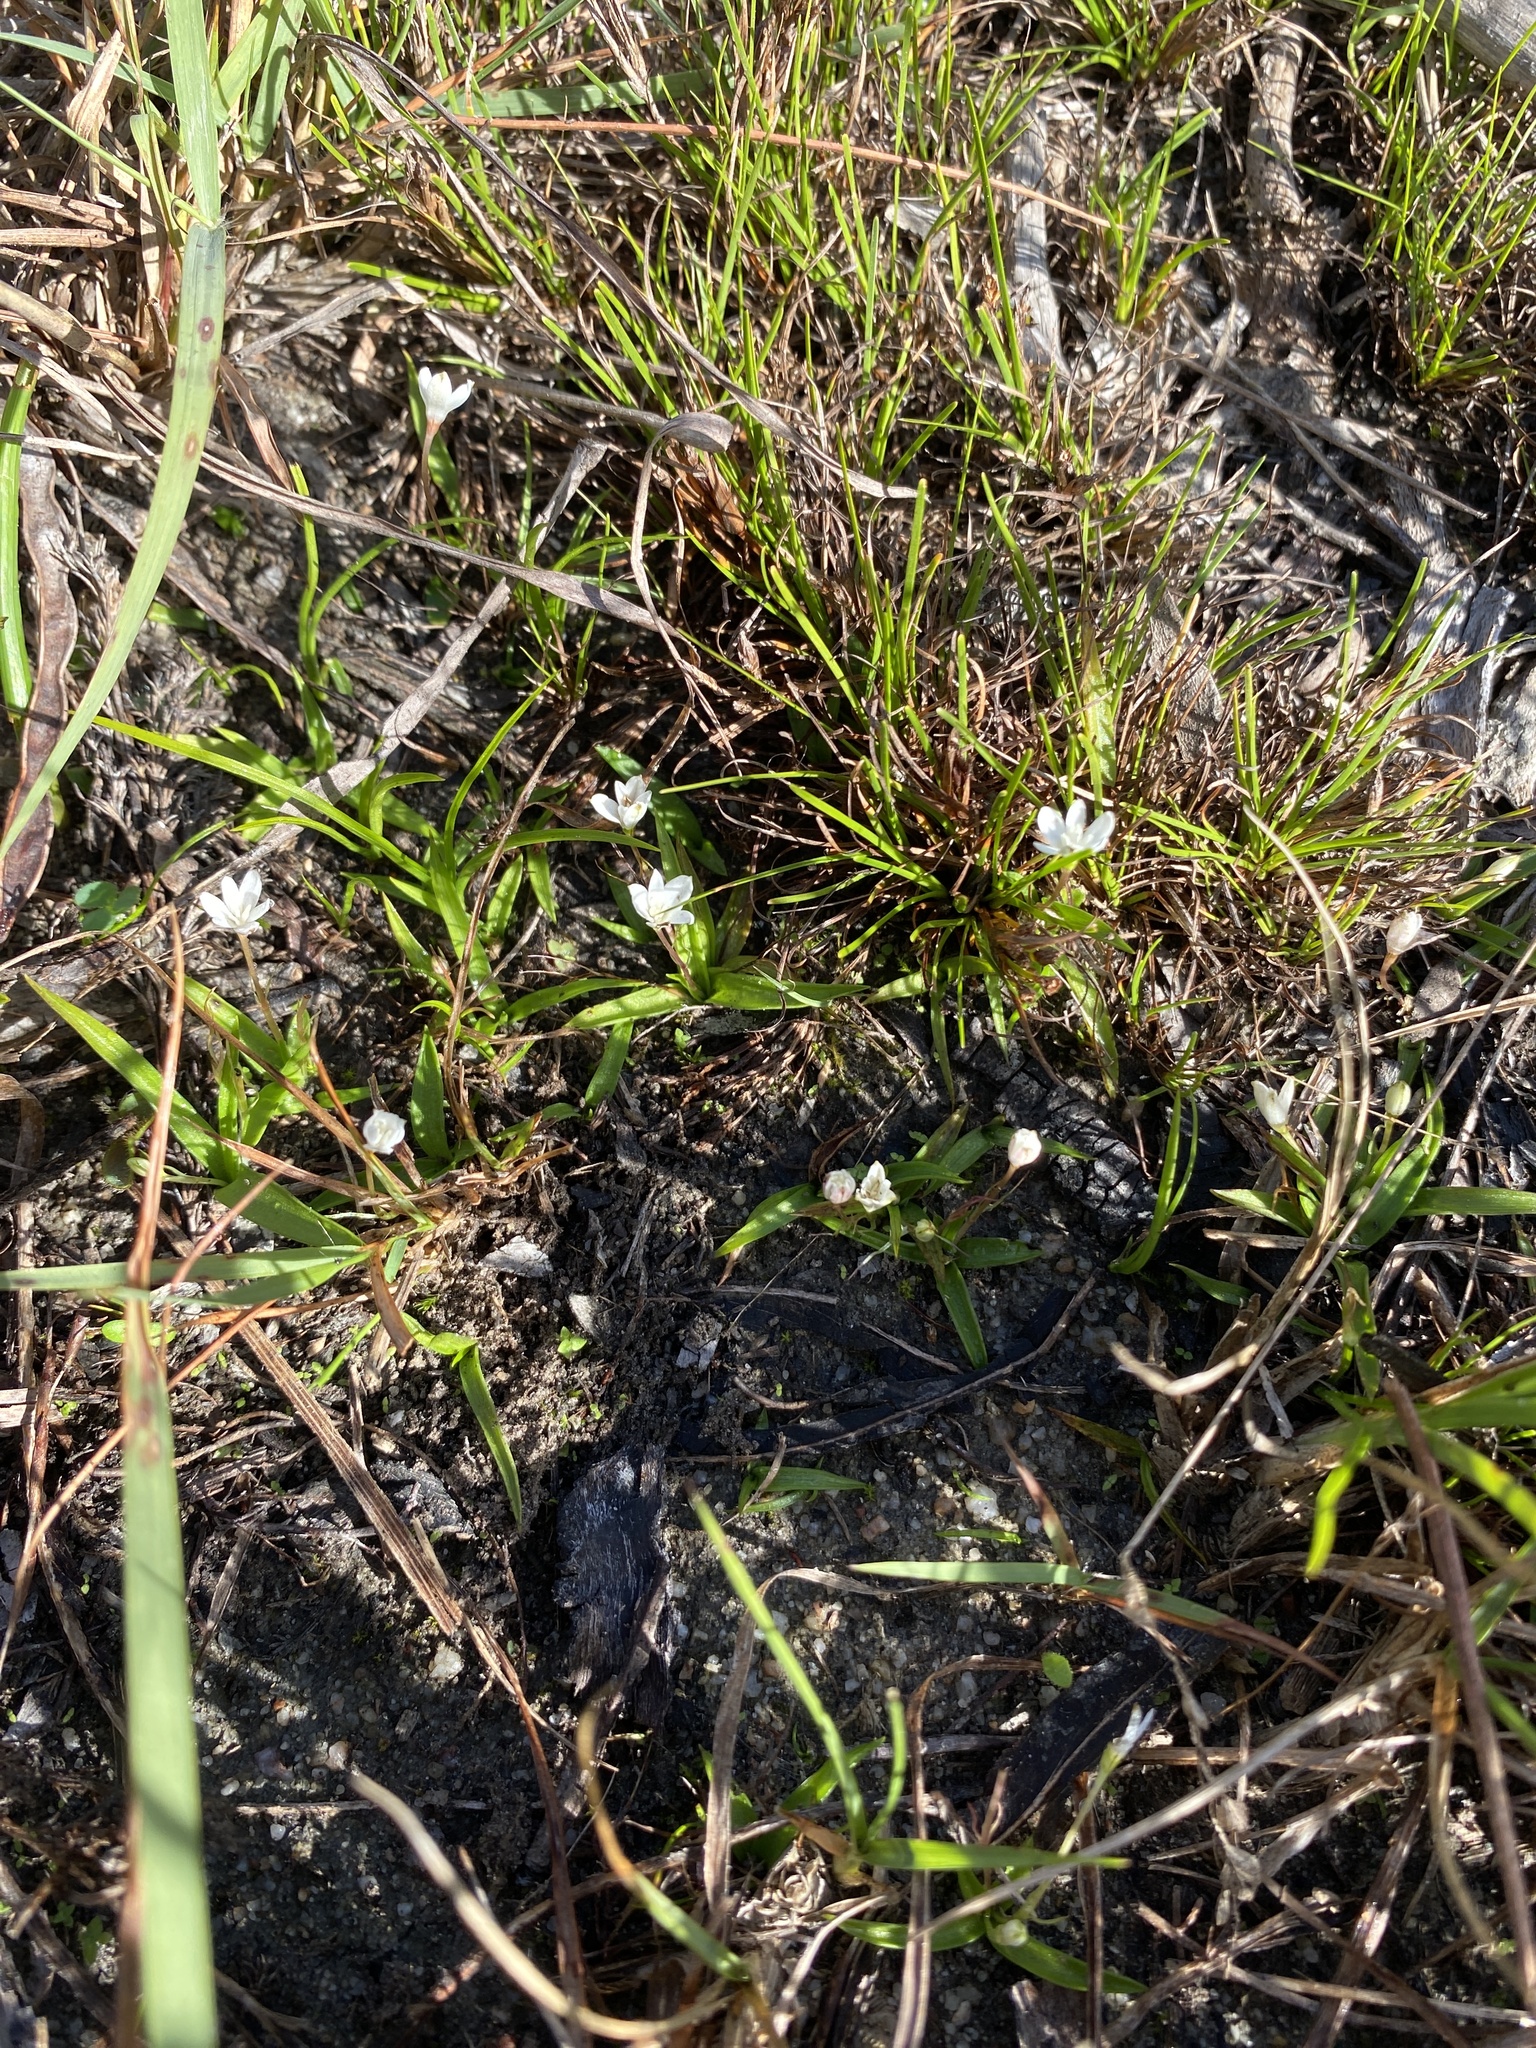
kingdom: Plantae
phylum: Tracheophyta
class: Liliopsida
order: Asparagales
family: Hypoxidaceae
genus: Pauridia
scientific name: Pauridia minuta
